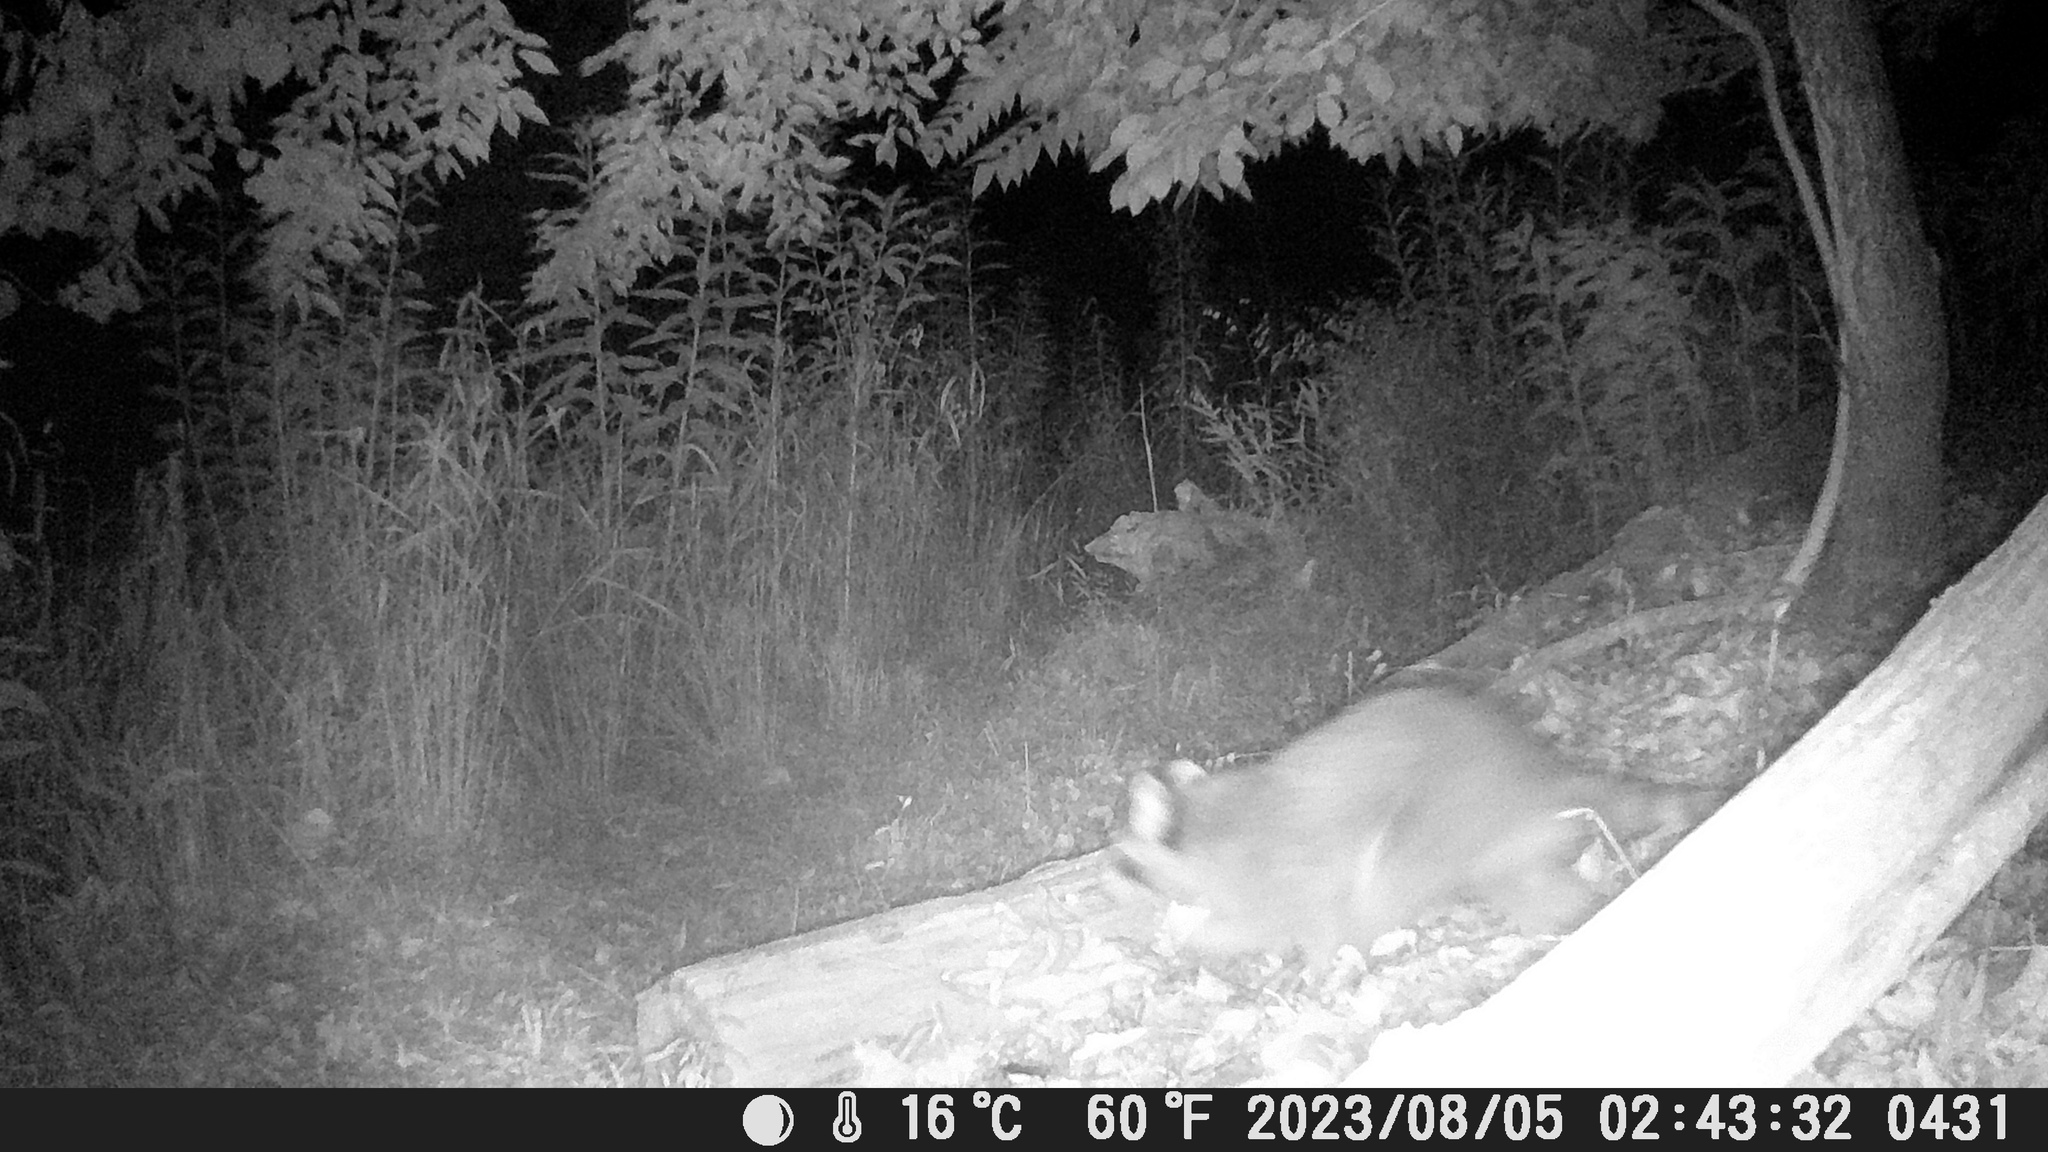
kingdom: Animalia
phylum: Chordata
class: Mammalia
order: Carnivora
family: Procyonidae
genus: Procyon
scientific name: Procyon lotor
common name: Raccoon
